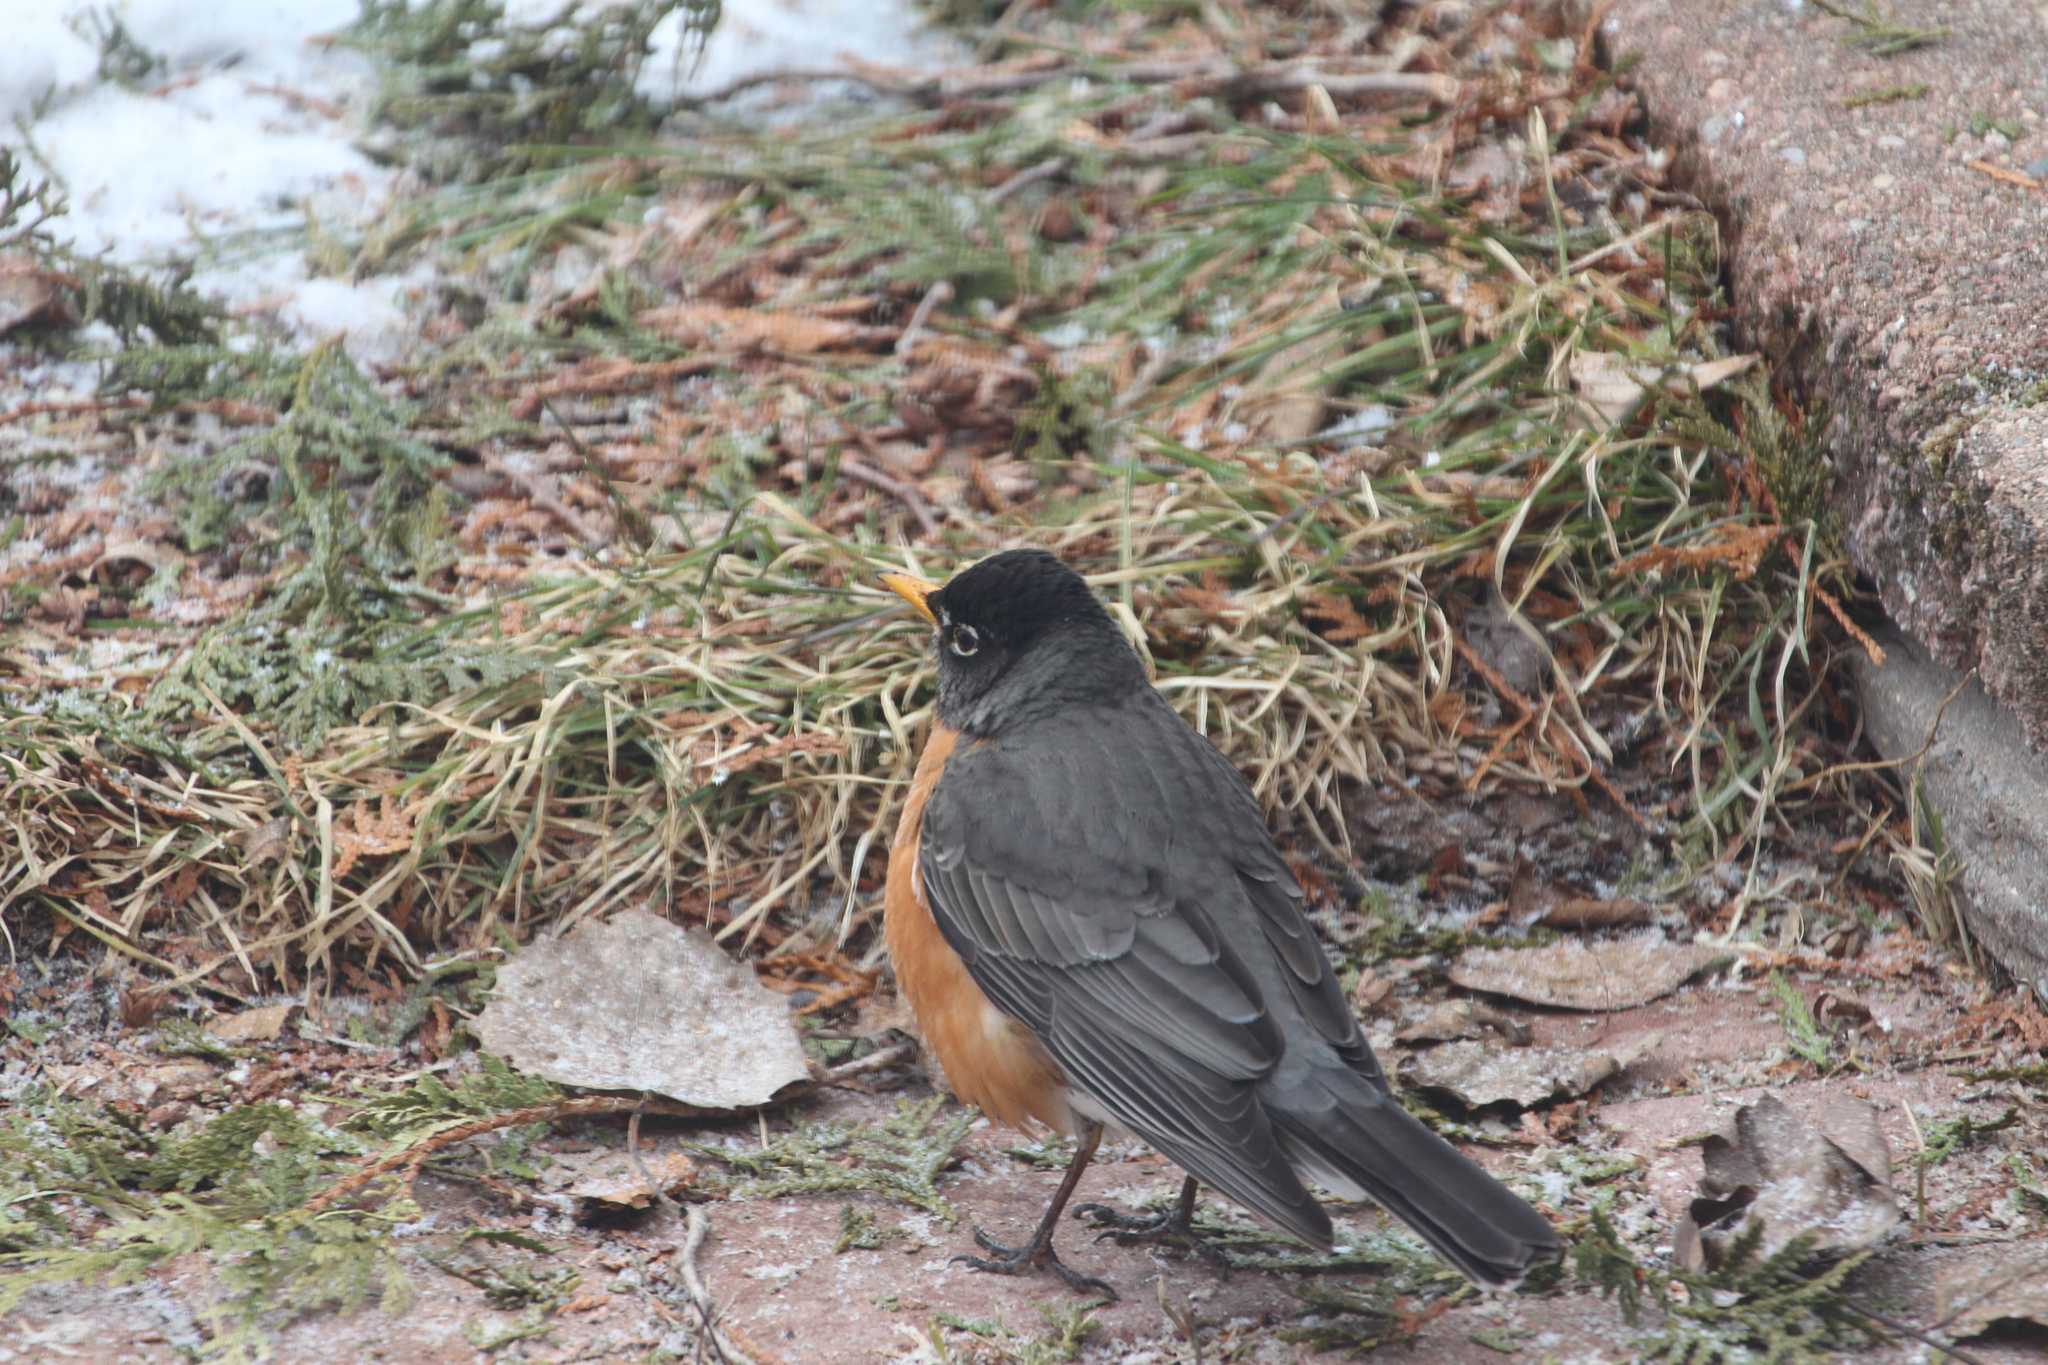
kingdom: Animalia
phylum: Chordata
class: Aves
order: Passeriformes
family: Turdidae
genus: Turdus
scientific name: Turdus migratorius
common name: American robin
